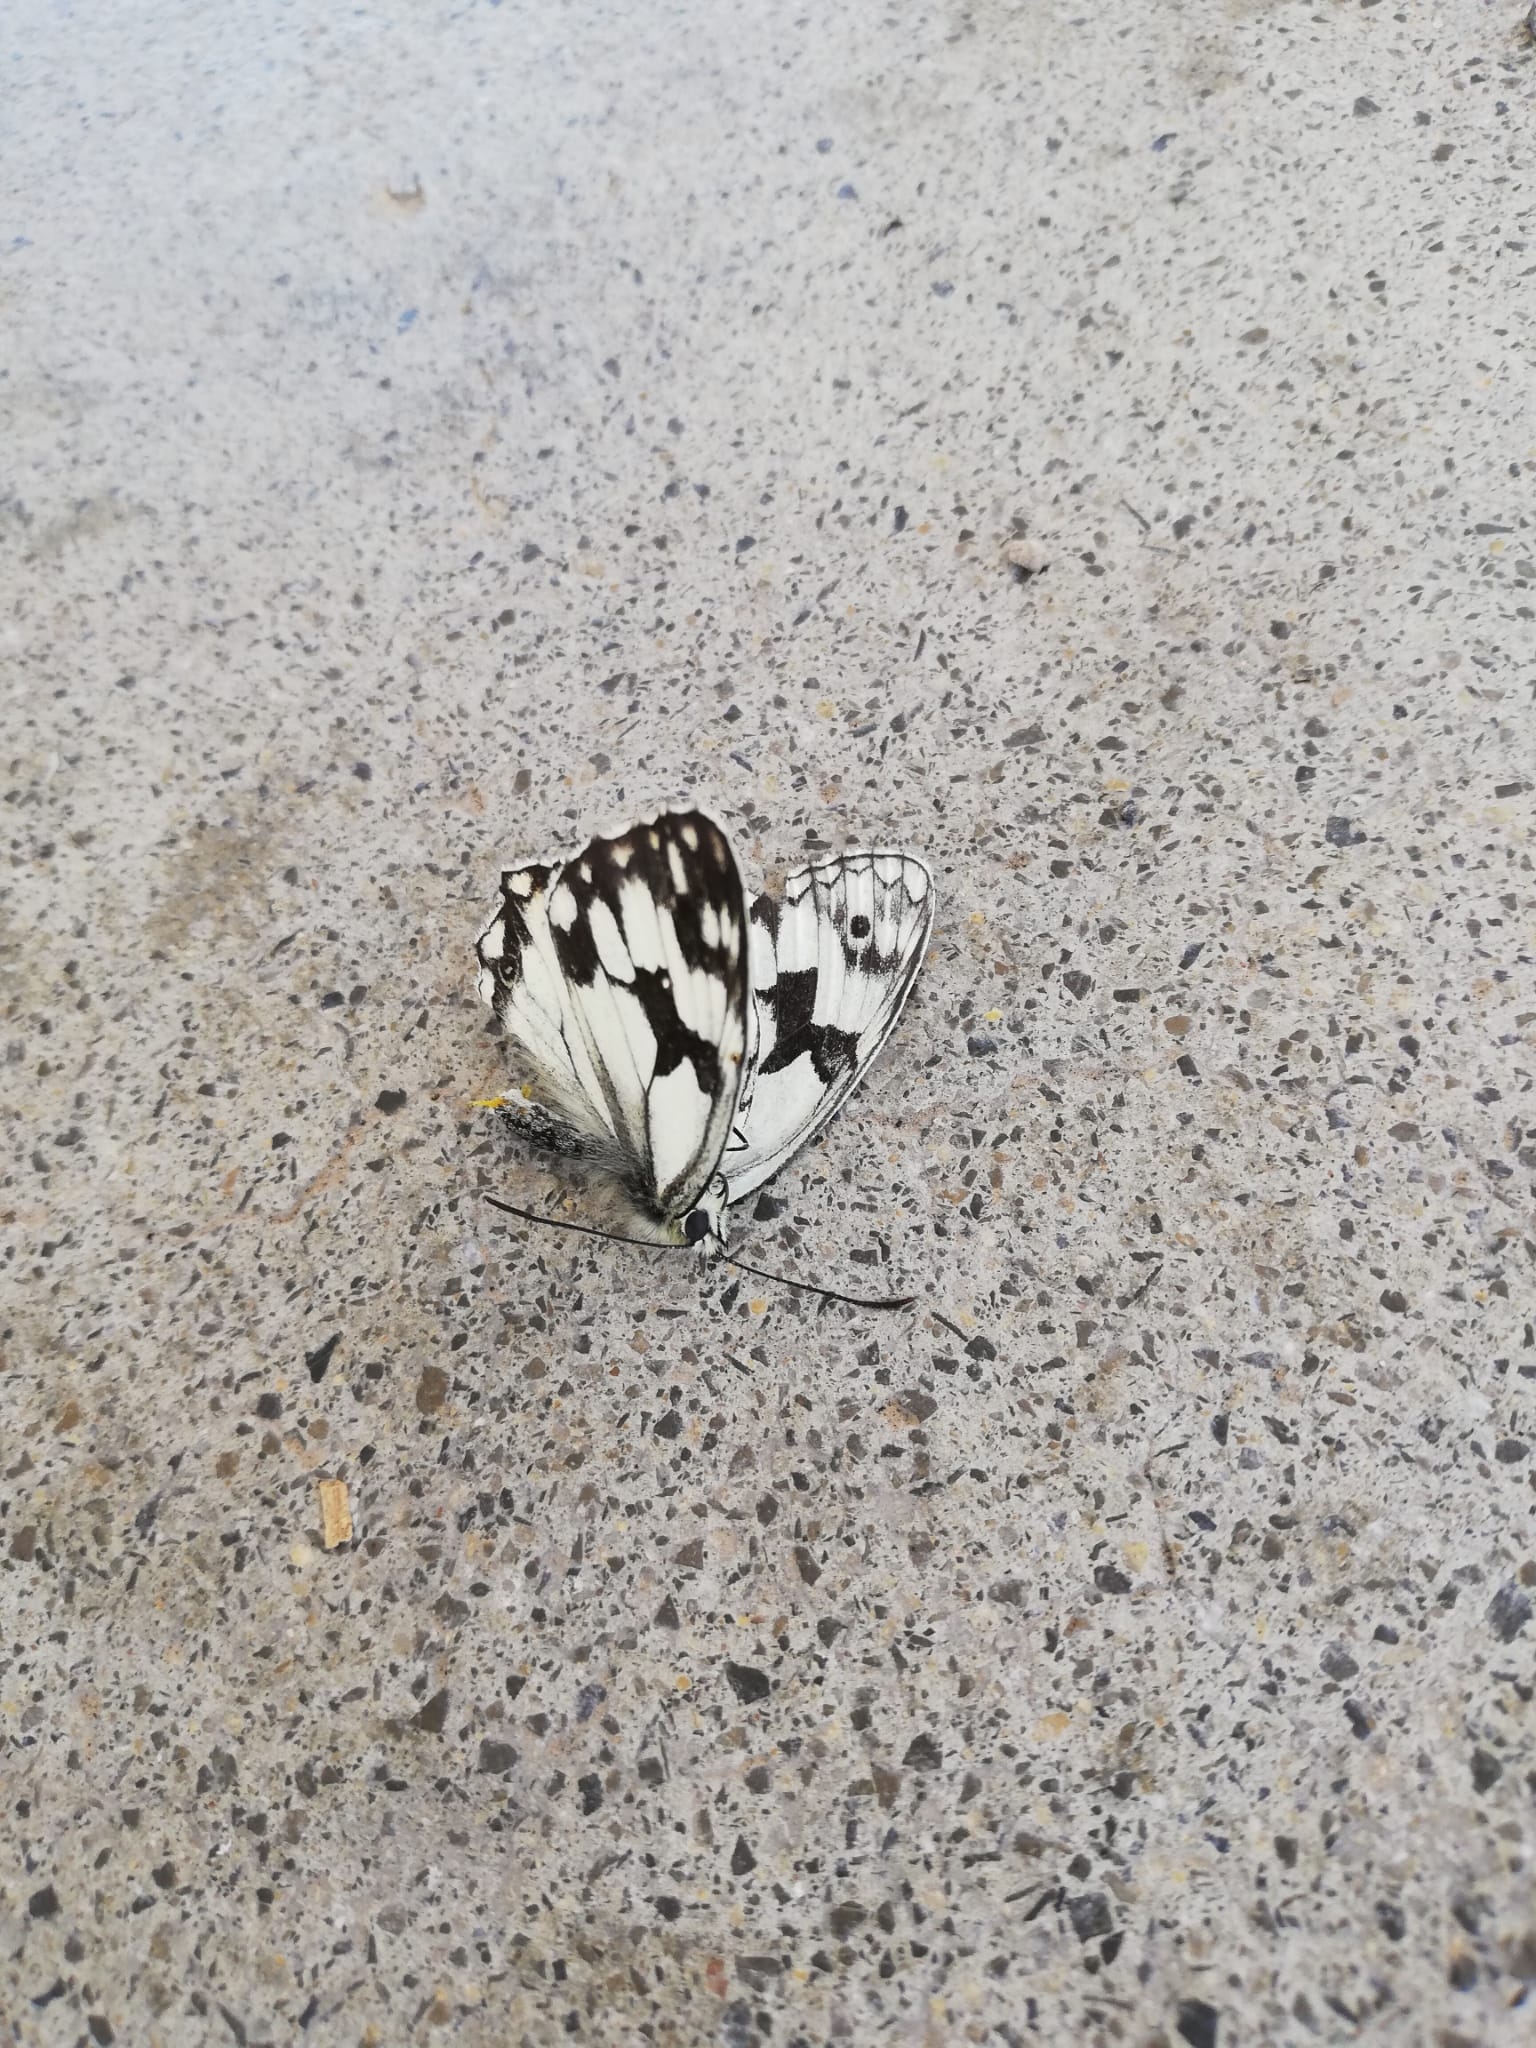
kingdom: Animalia
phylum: Arthropoda
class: Insecta
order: Lepidoptera
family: Nymphalidae
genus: Melanargia
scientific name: Melanargia lachesis
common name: Iberian marbled white
